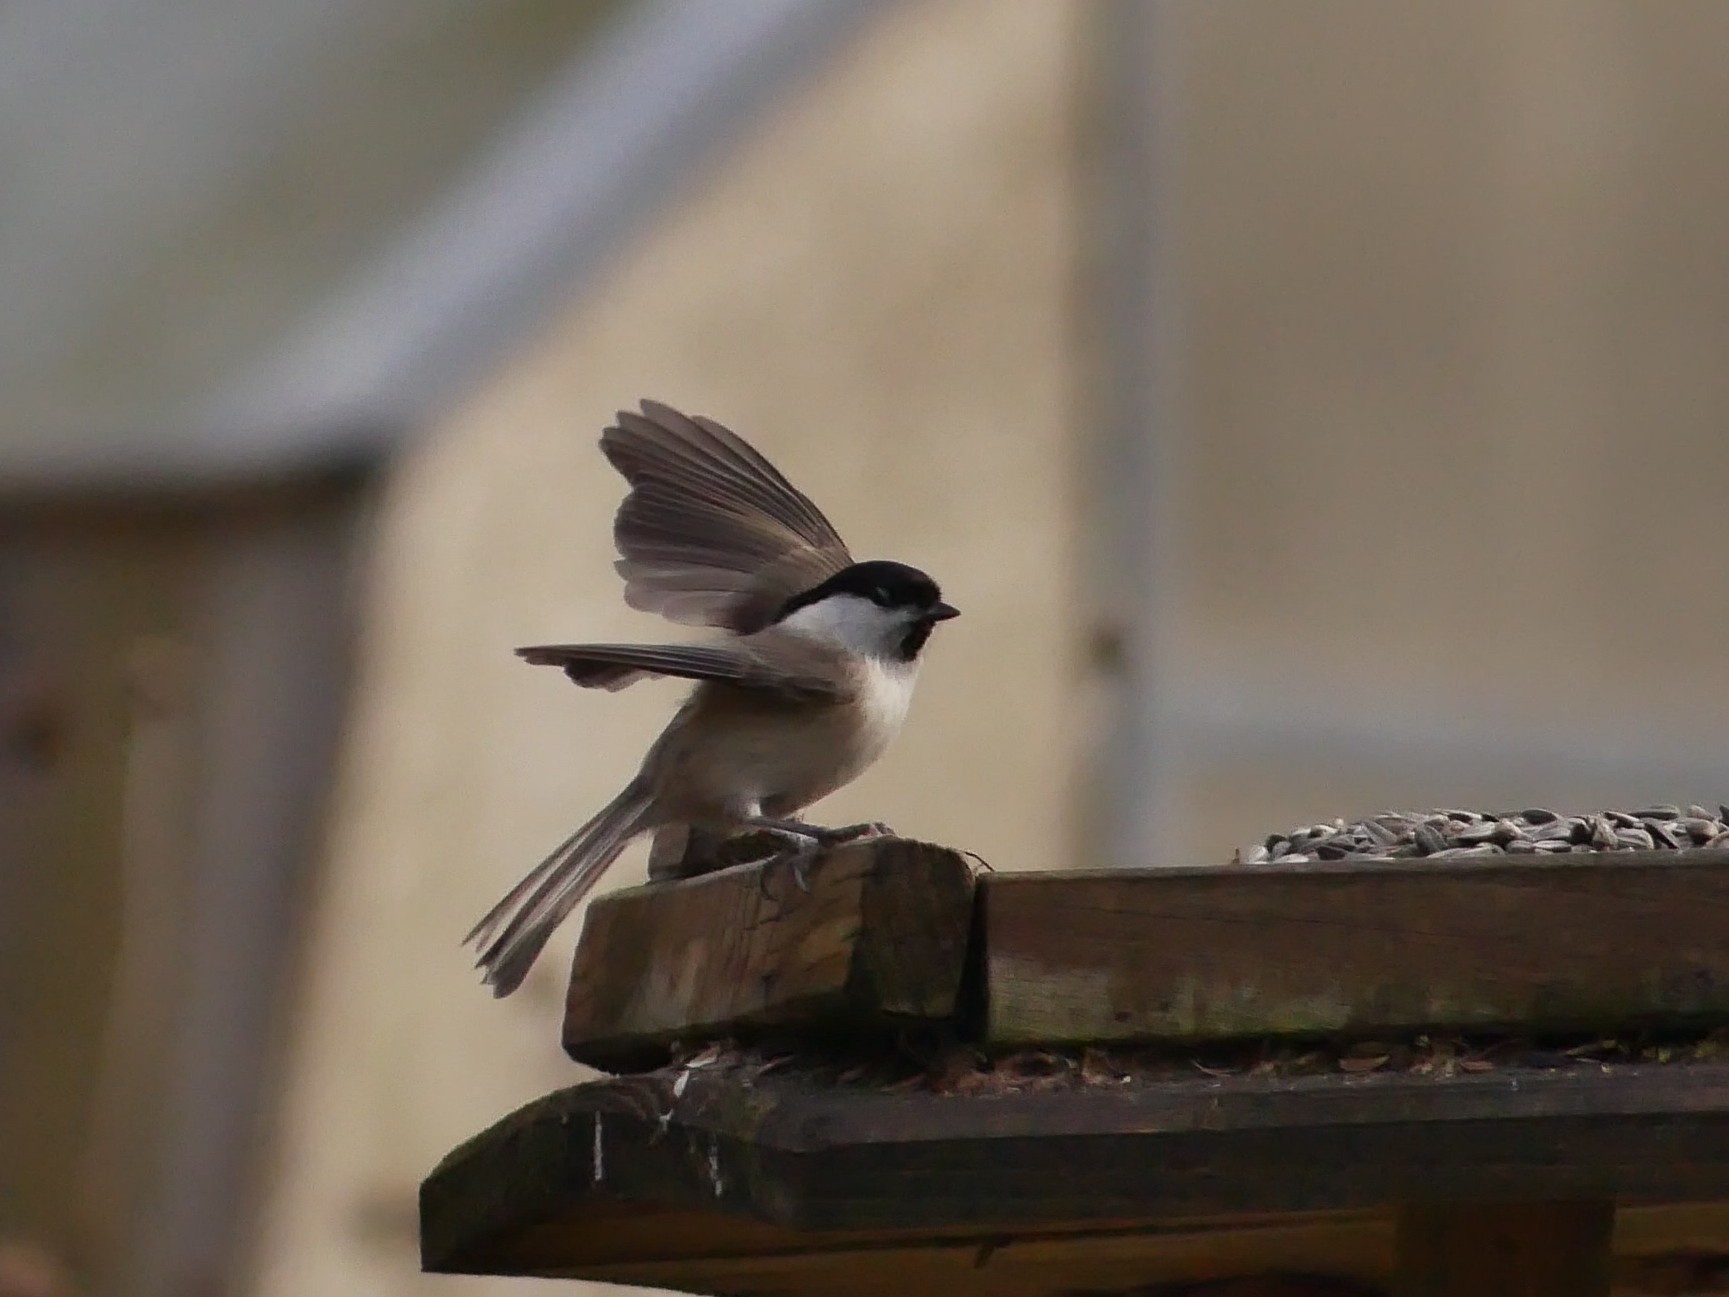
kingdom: Animalia
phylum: Chordata
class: Aves
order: Passeriformes
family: Paridae
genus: Poecile
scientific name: Poecile palustris
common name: Marsh tit
